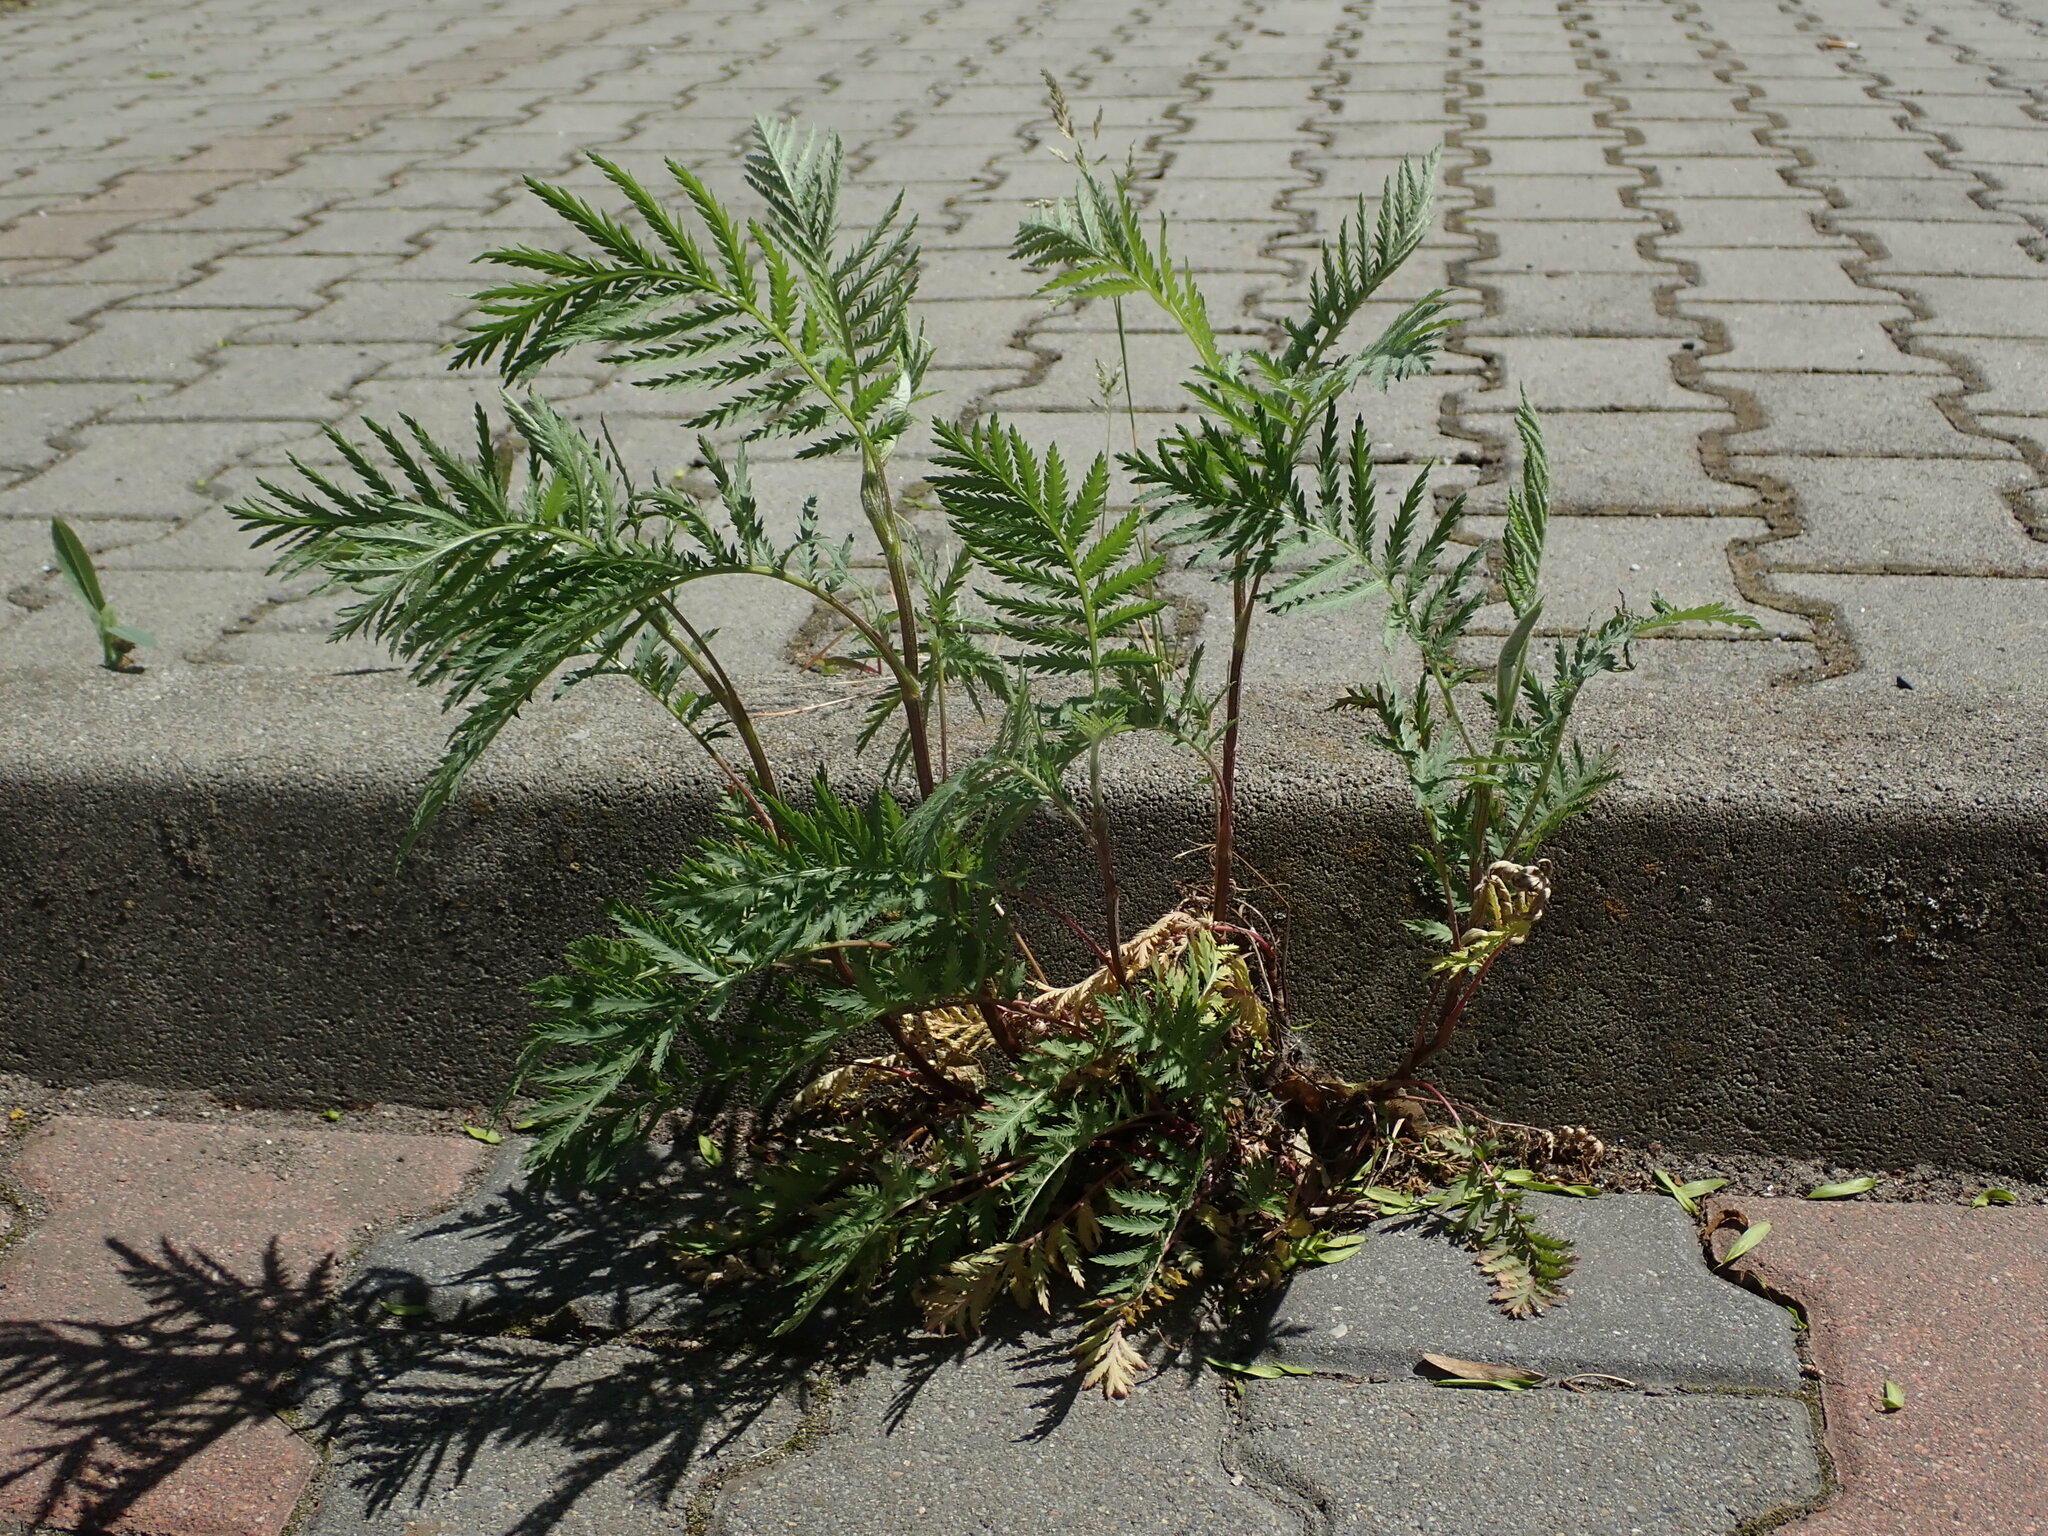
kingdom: Plantae
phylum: Tracheophyta
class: Magnoliopsida
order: Asterales
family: Asteraceae
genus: Tanacetum
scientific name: Tanacetum vulgare
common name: Common tansy
